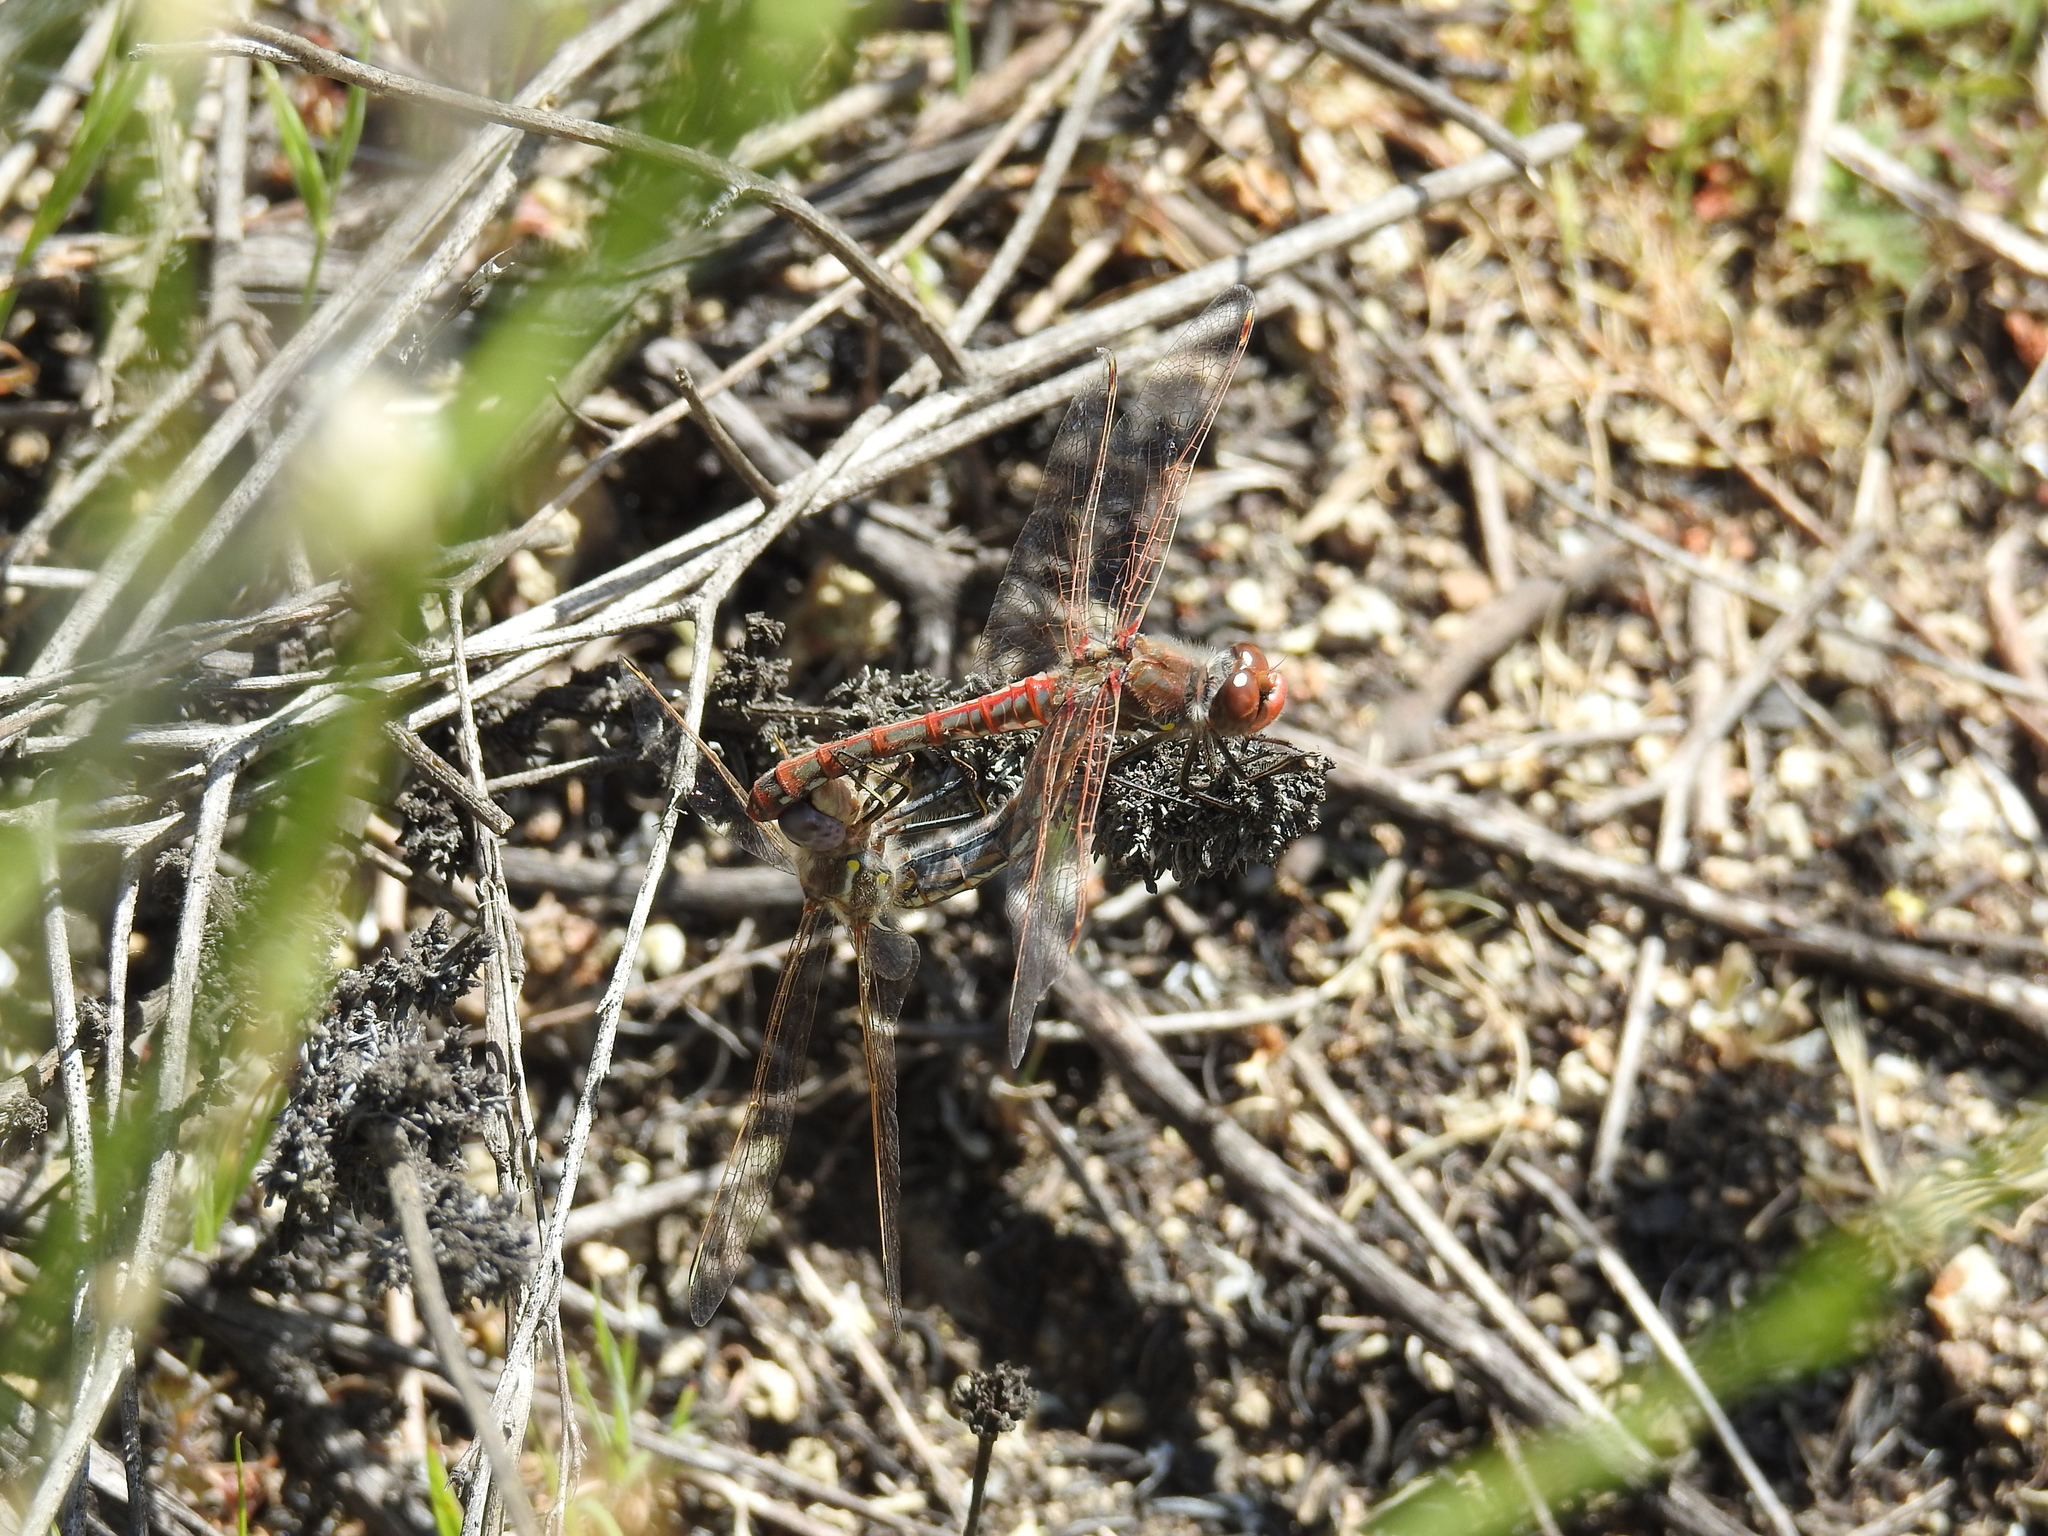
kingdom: Animalia
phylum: Arthropoda
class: Insecta
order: Odonata
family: Libellulidae
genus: Sympetrum
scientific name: Sympetrum corruptum
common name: Variegated meadowhawk
